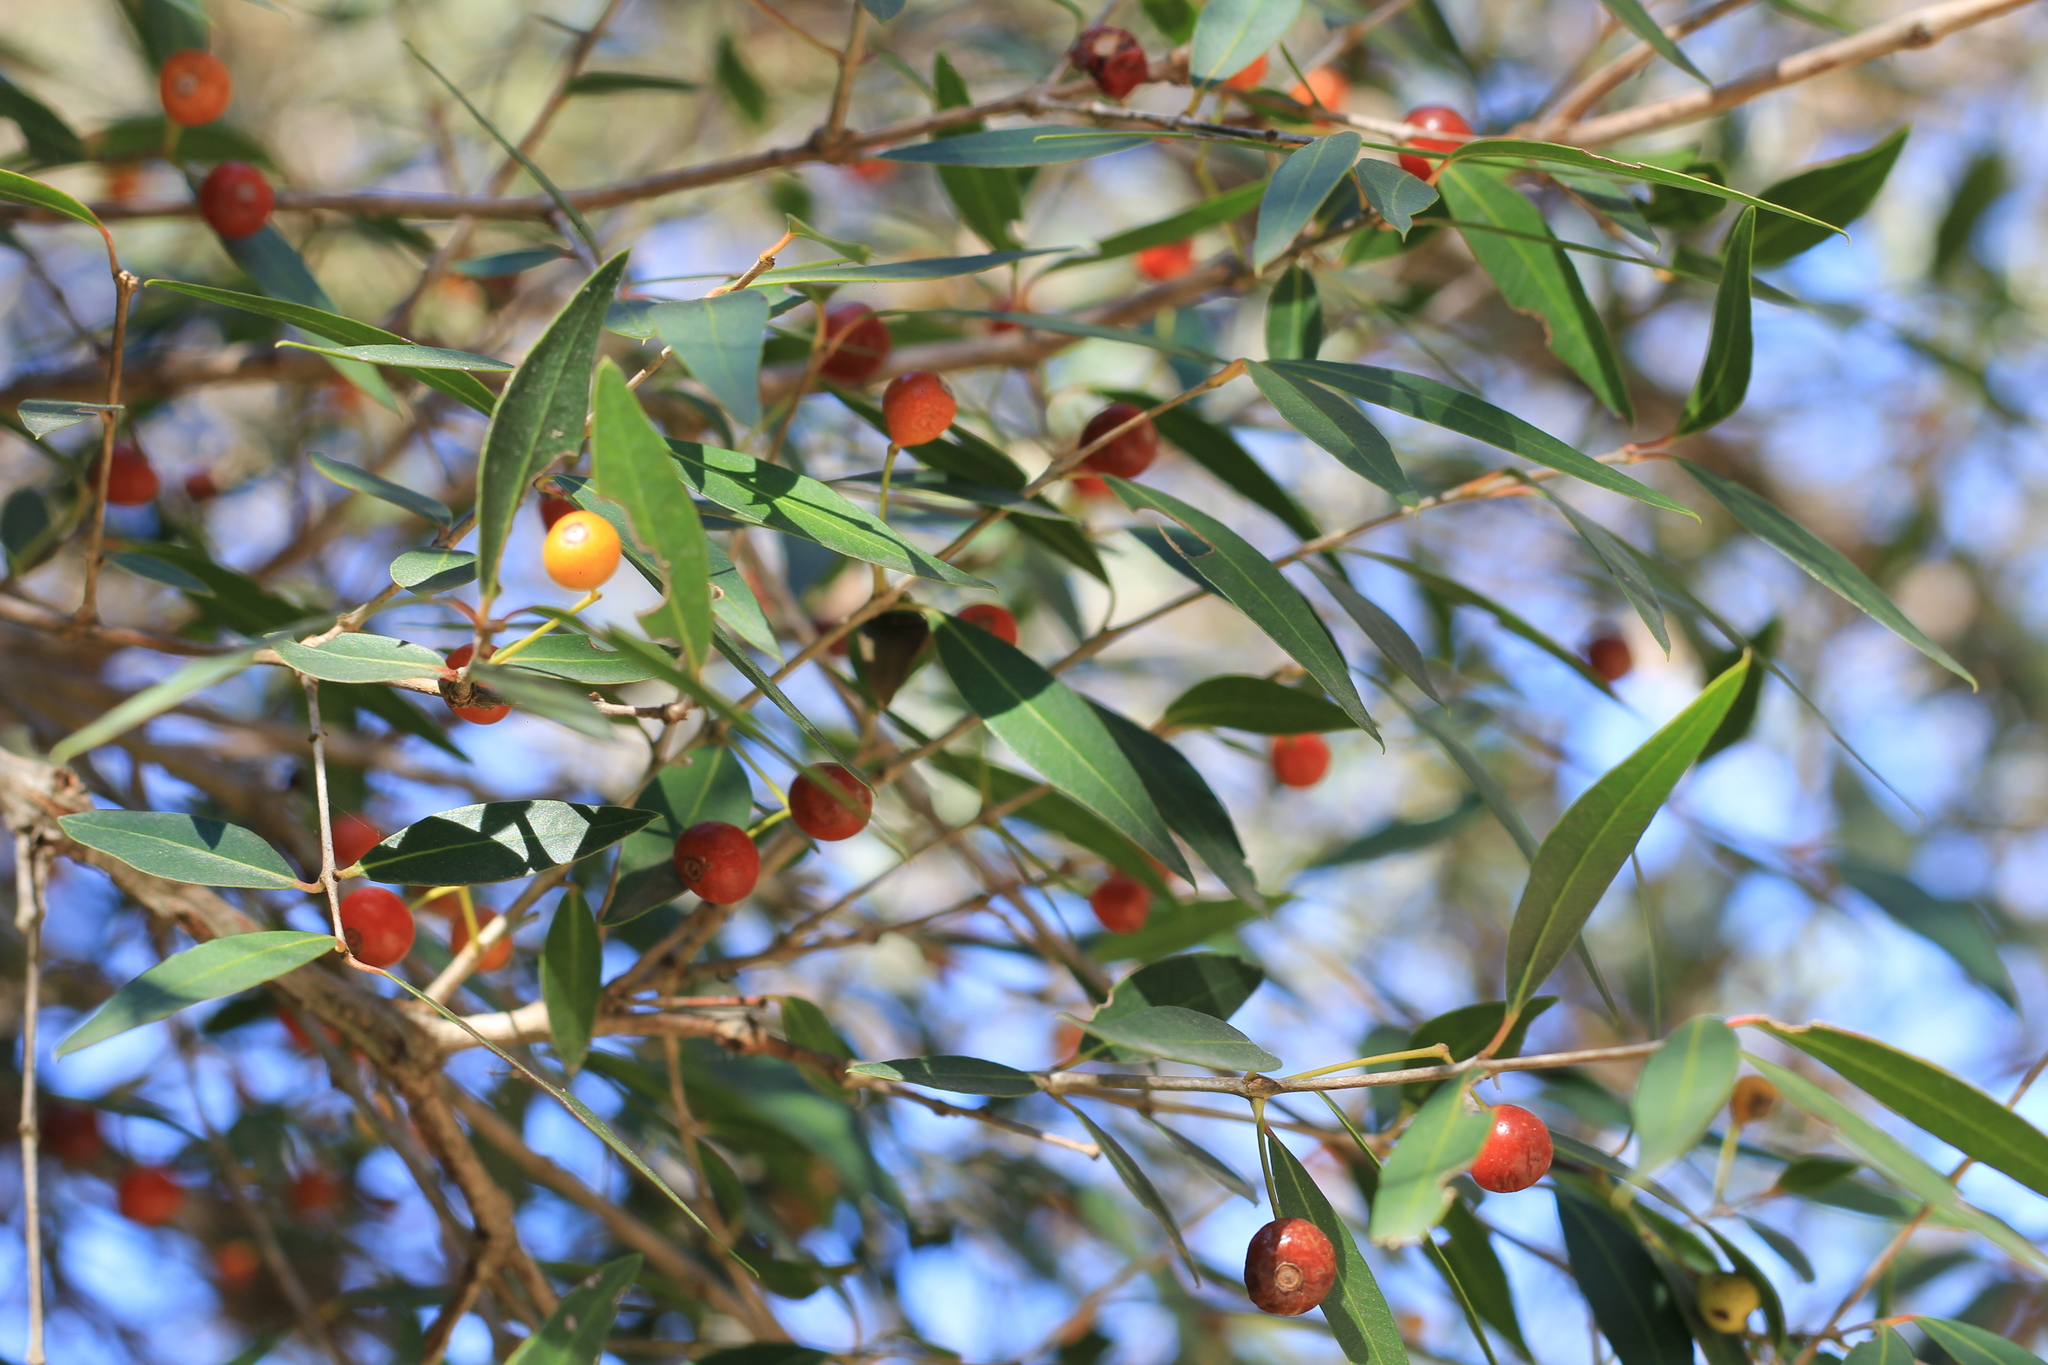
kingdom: Plantae
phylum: Tracheophyta
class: Magnoliopsida
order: Myrtales
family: Myrtaceae
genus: Blepharocalyx
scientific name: Blepharocalyx salicifolius
